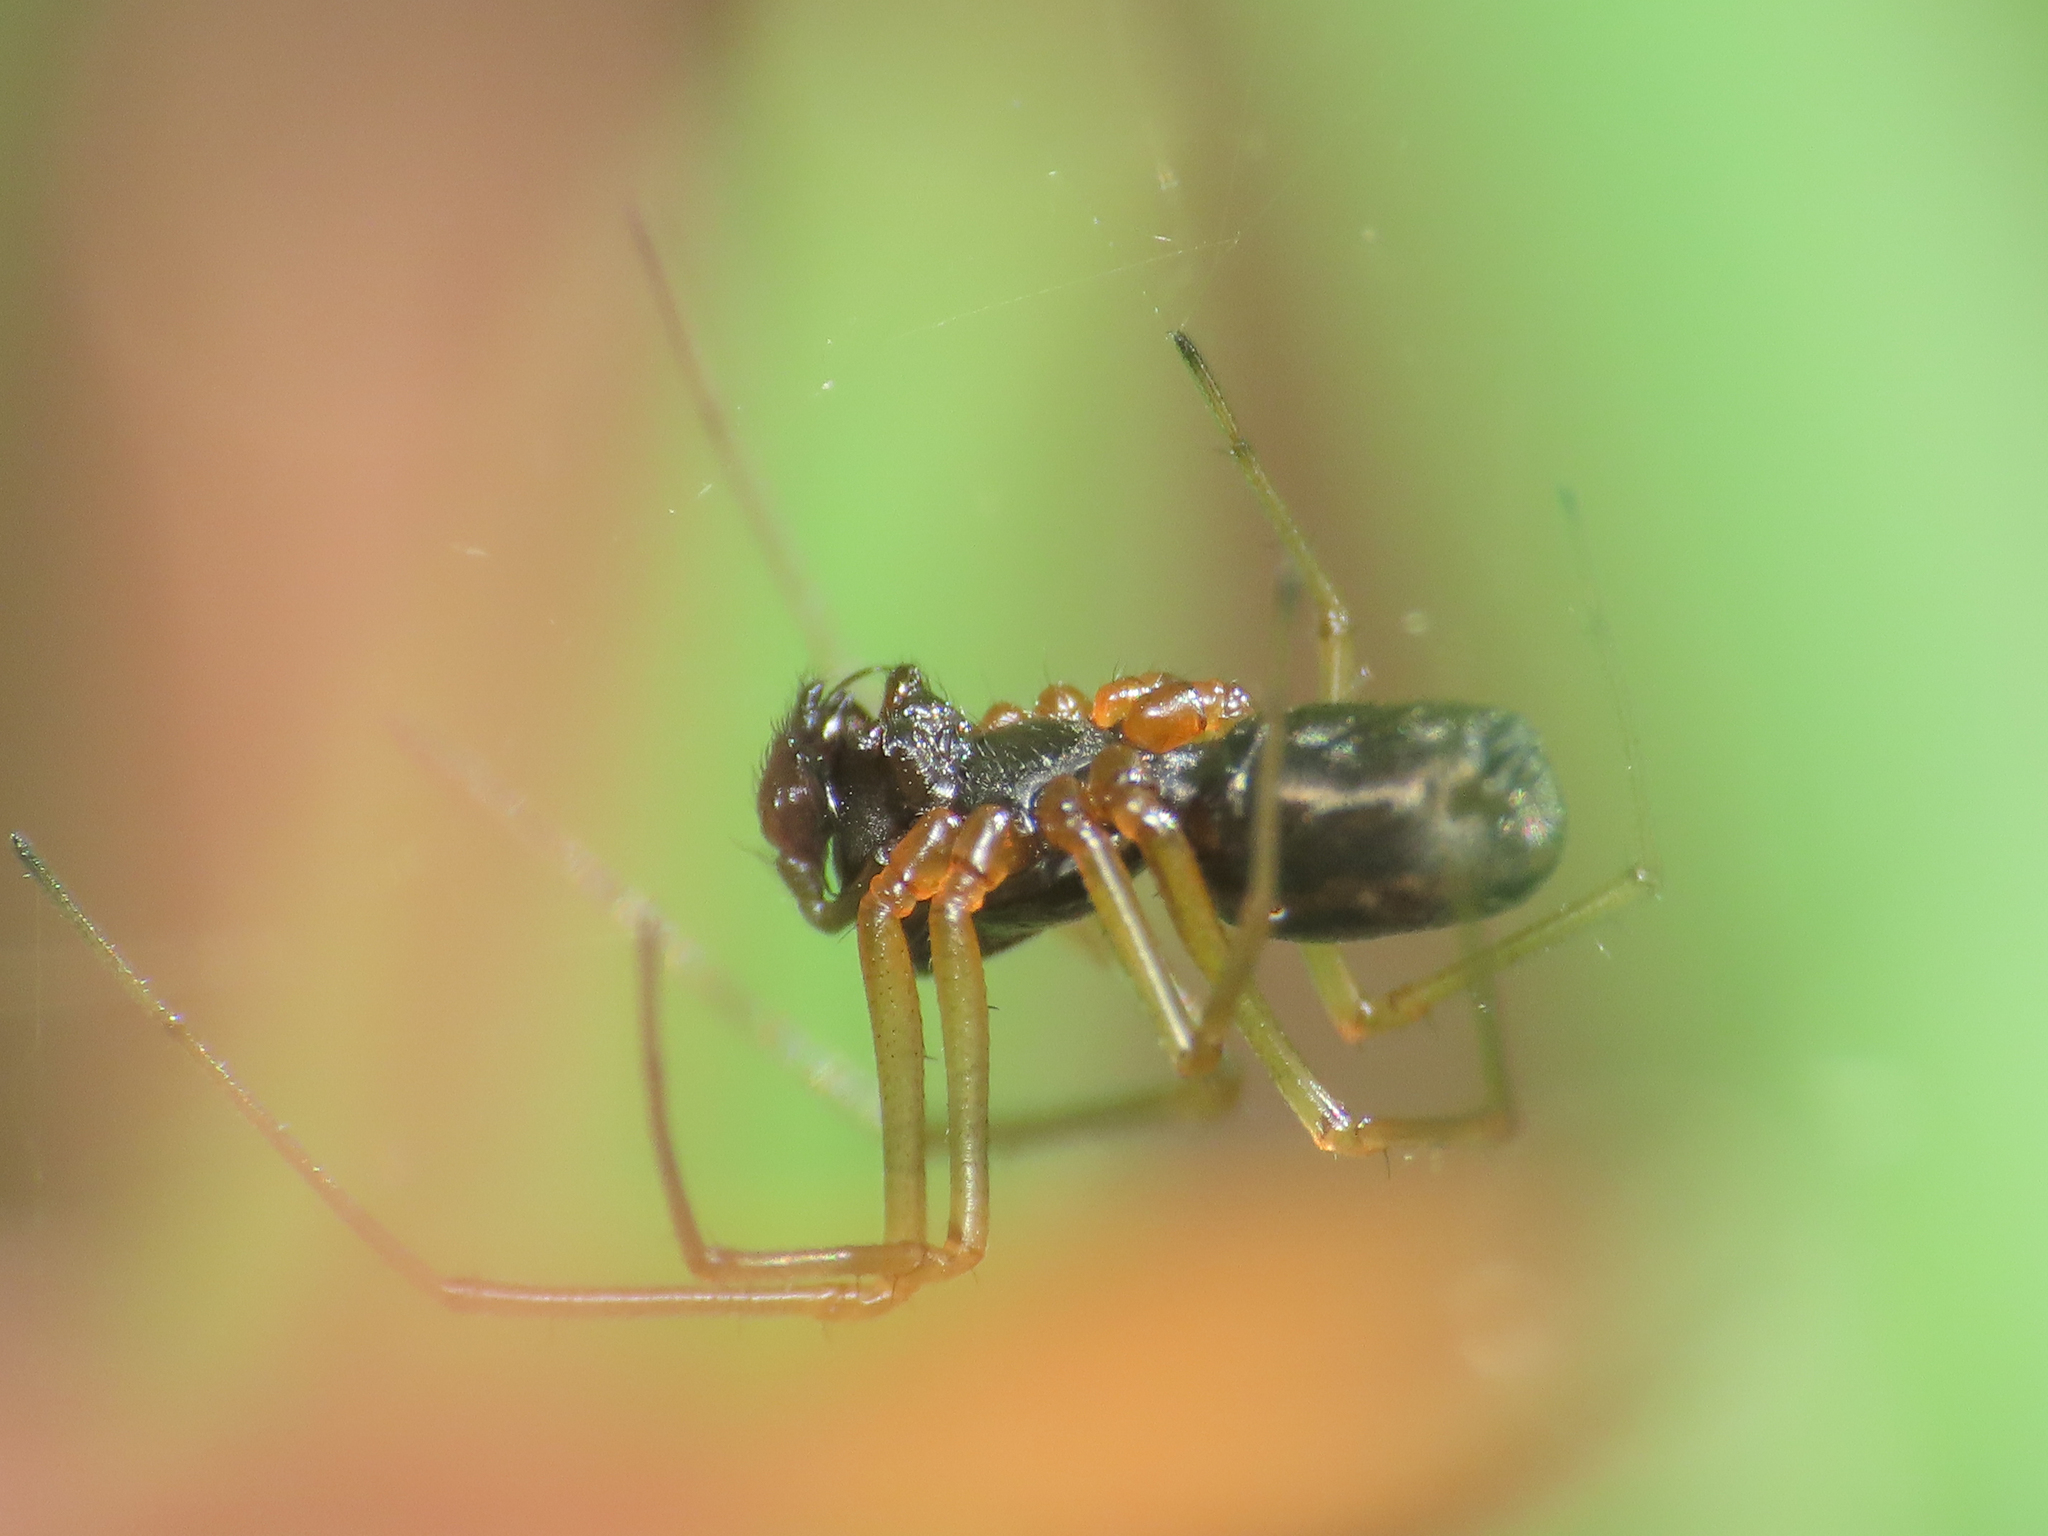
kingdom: Animalia
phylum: Arthropoda
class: Arachnida
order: Araneae
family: Linyphiidae
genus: Microlinyphia
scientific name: Microlinyphia pusilla
